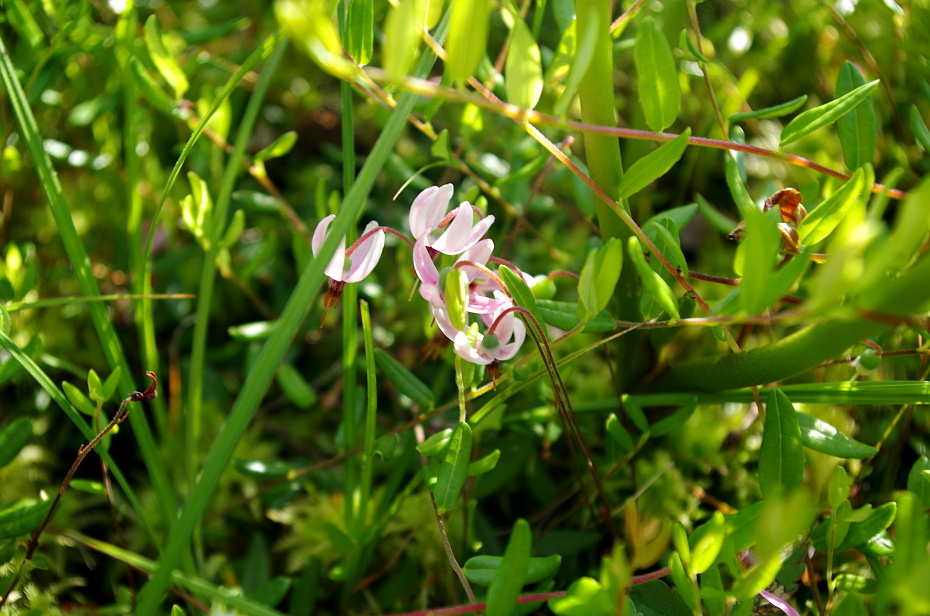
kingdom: Plantae
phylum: Tracheophyta
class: Magnoliopsida
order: Ericales
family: Ericaceae
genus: Vaccinium
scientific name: Vaccinium oxycoccos
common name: Cranberry
